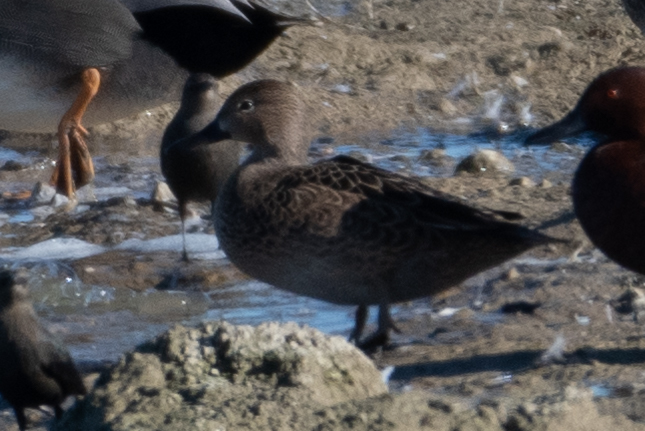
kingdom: Animalia
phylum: Chordata
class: Aves
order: Anseriformes
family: Anatidae
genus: Spatula
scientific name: Spatula cyanoptera
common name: Cinnamon teal
